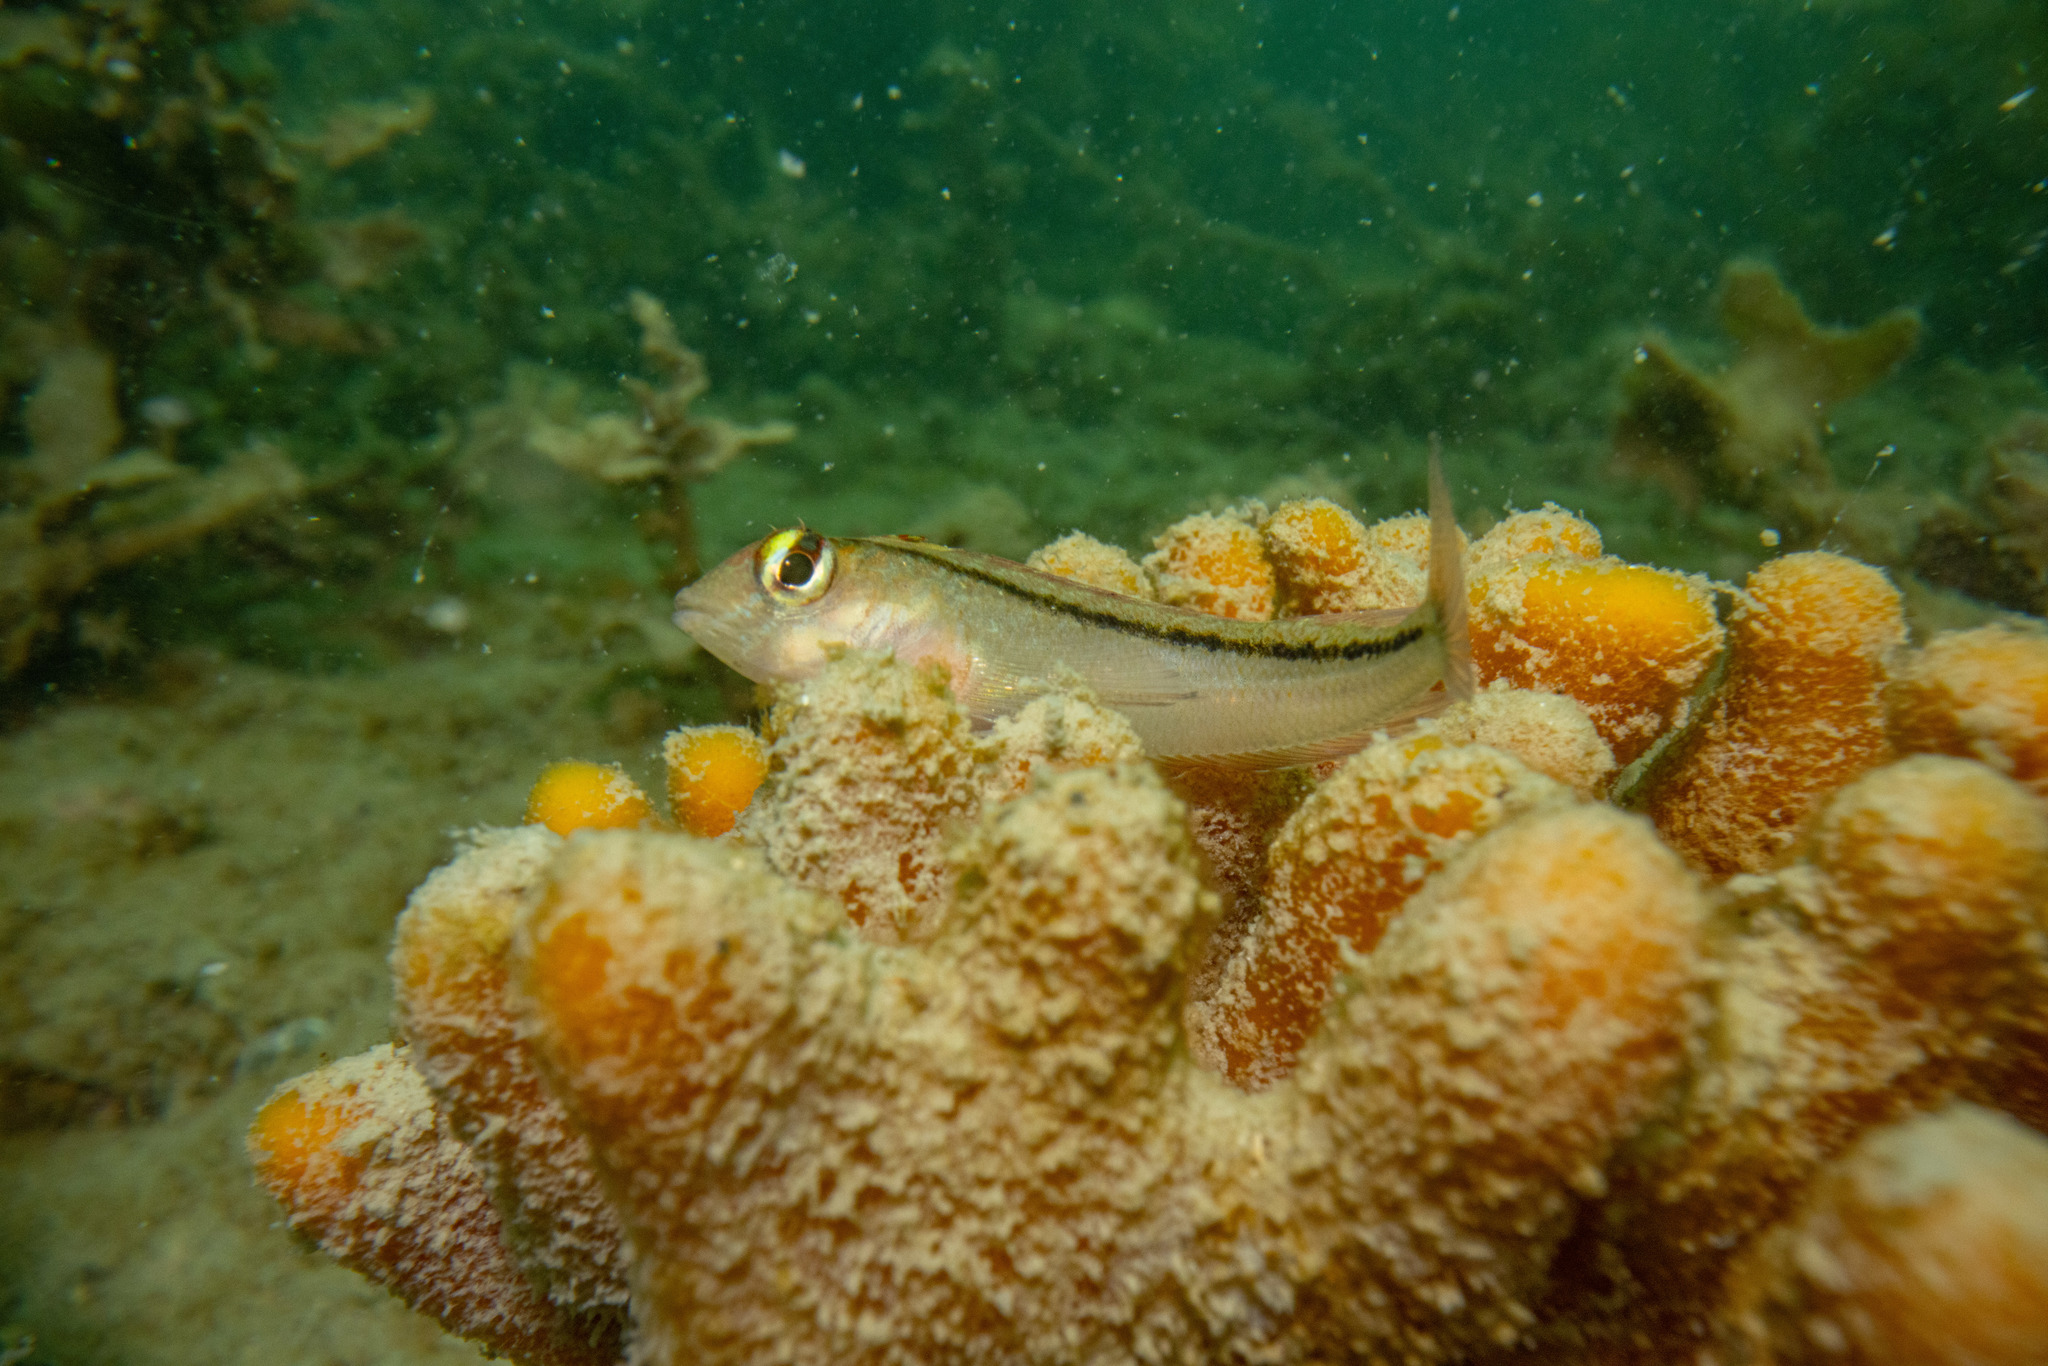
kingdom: Animalia
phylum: Chordata
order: Perciformes
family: Tripterygiidae
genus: Forsterygion
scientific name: Forsterygion lapillum
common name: Common triplefin
